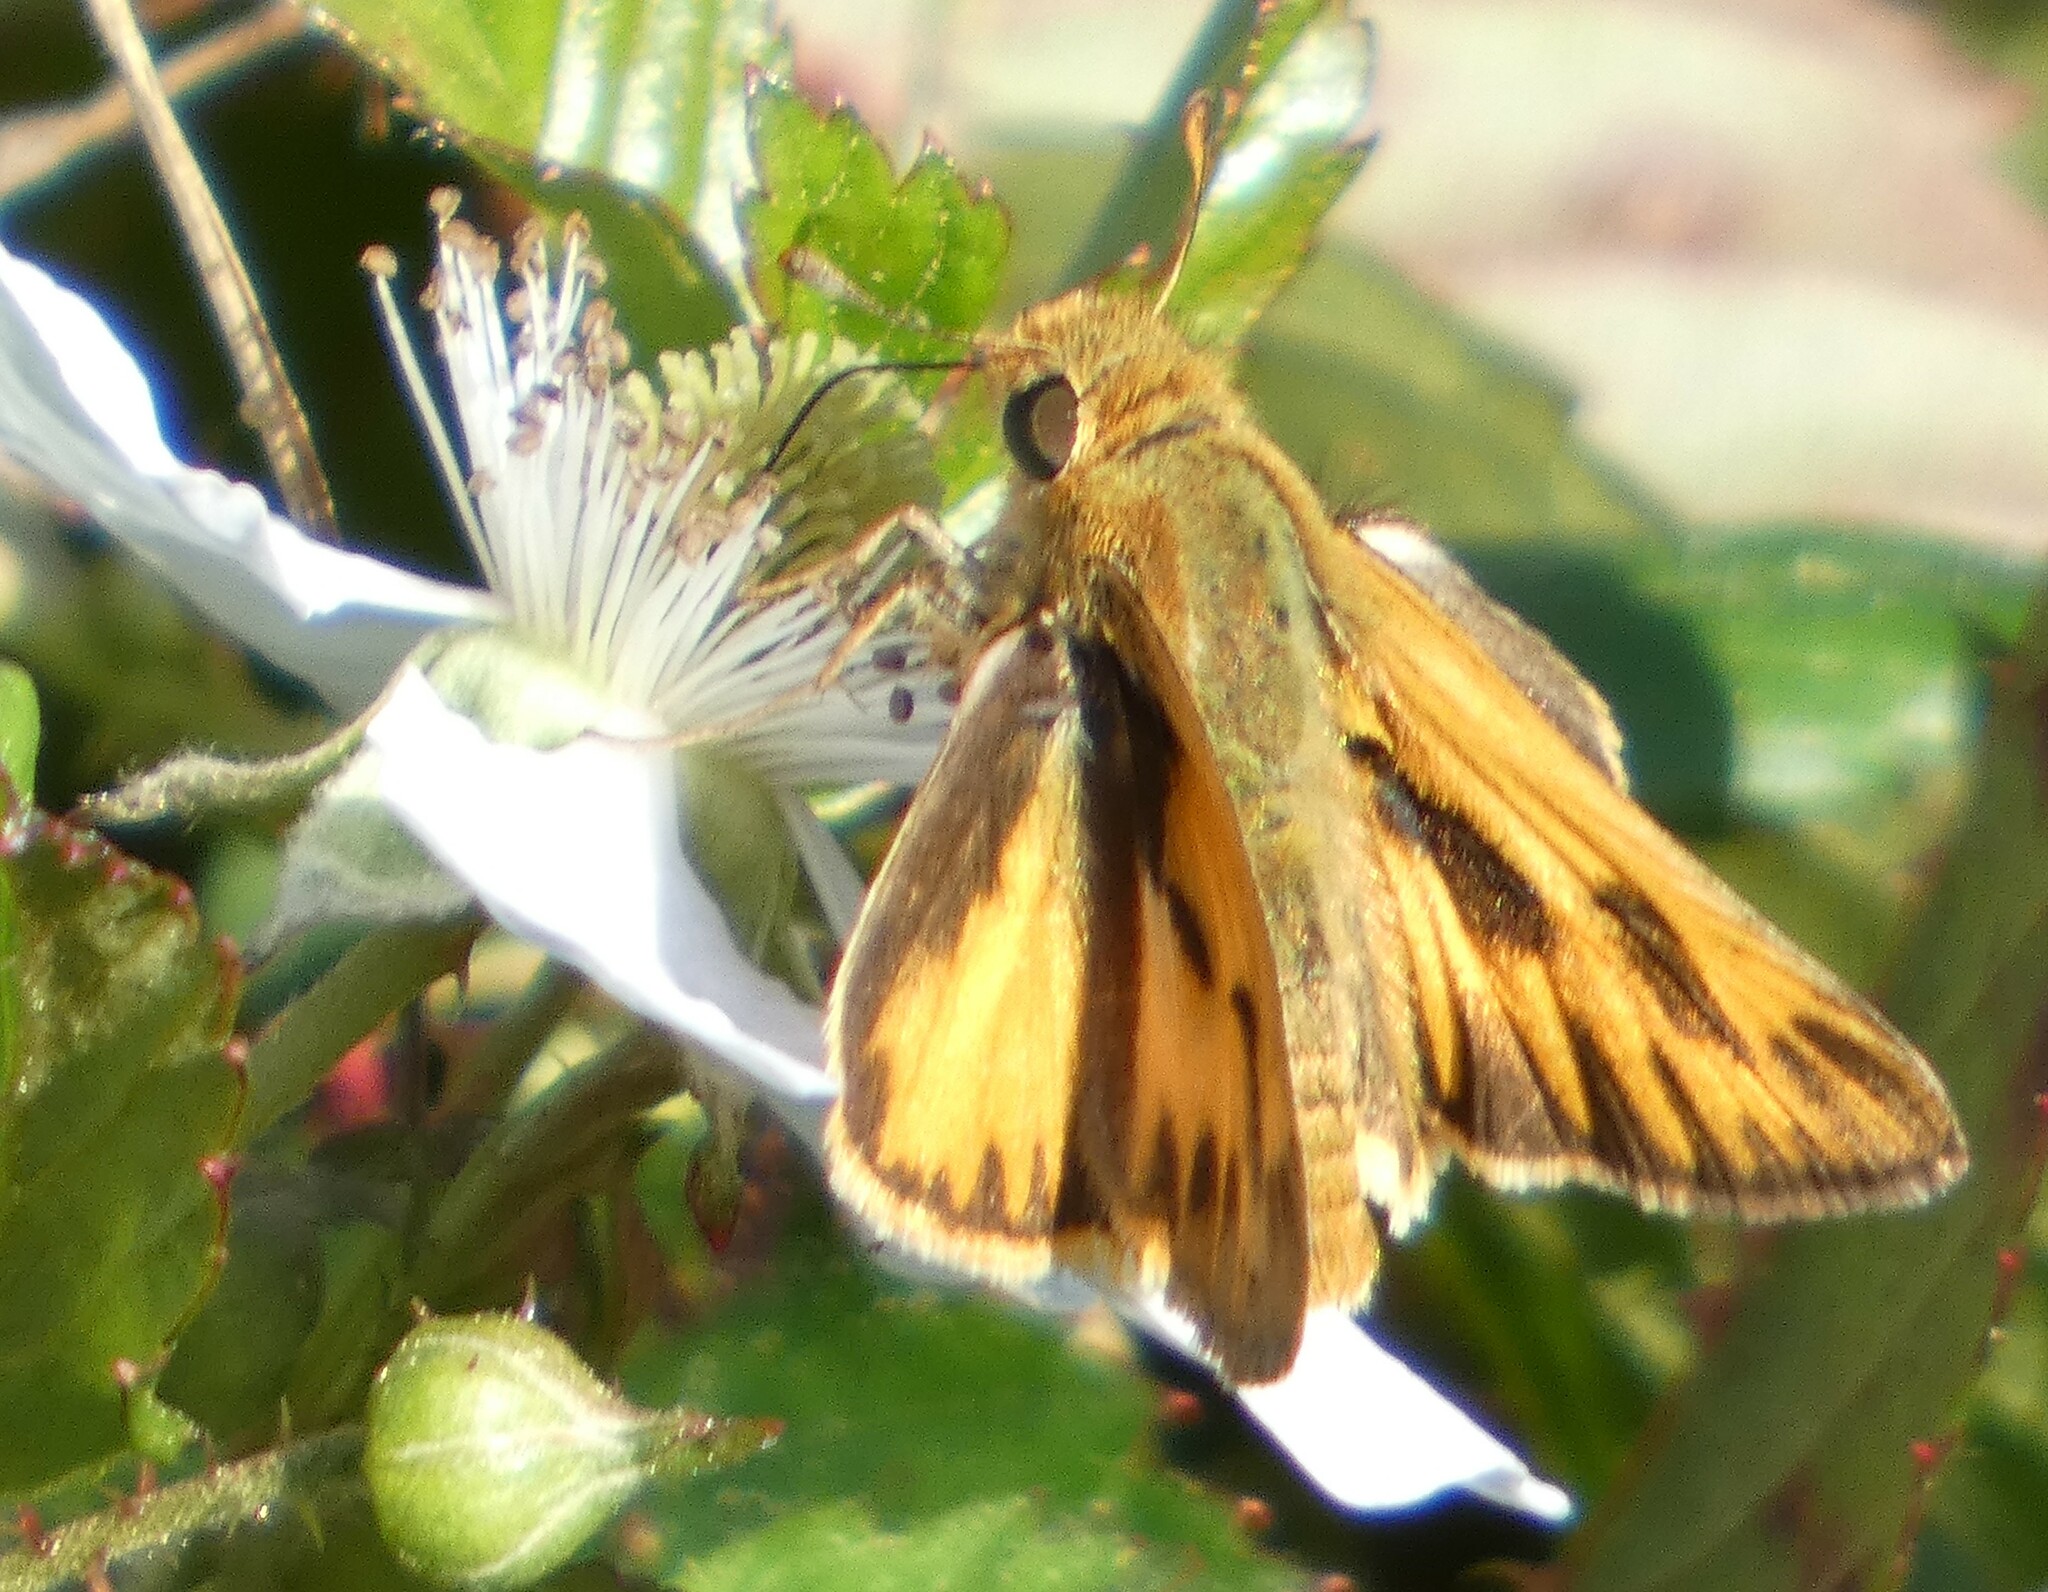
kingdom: Animalia
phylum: Arthropoda
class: Insecta
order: Lepidoptera
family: Hesperiidae
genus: Hylephila
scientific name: Hylephila phyleus
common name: Fiery skipper
